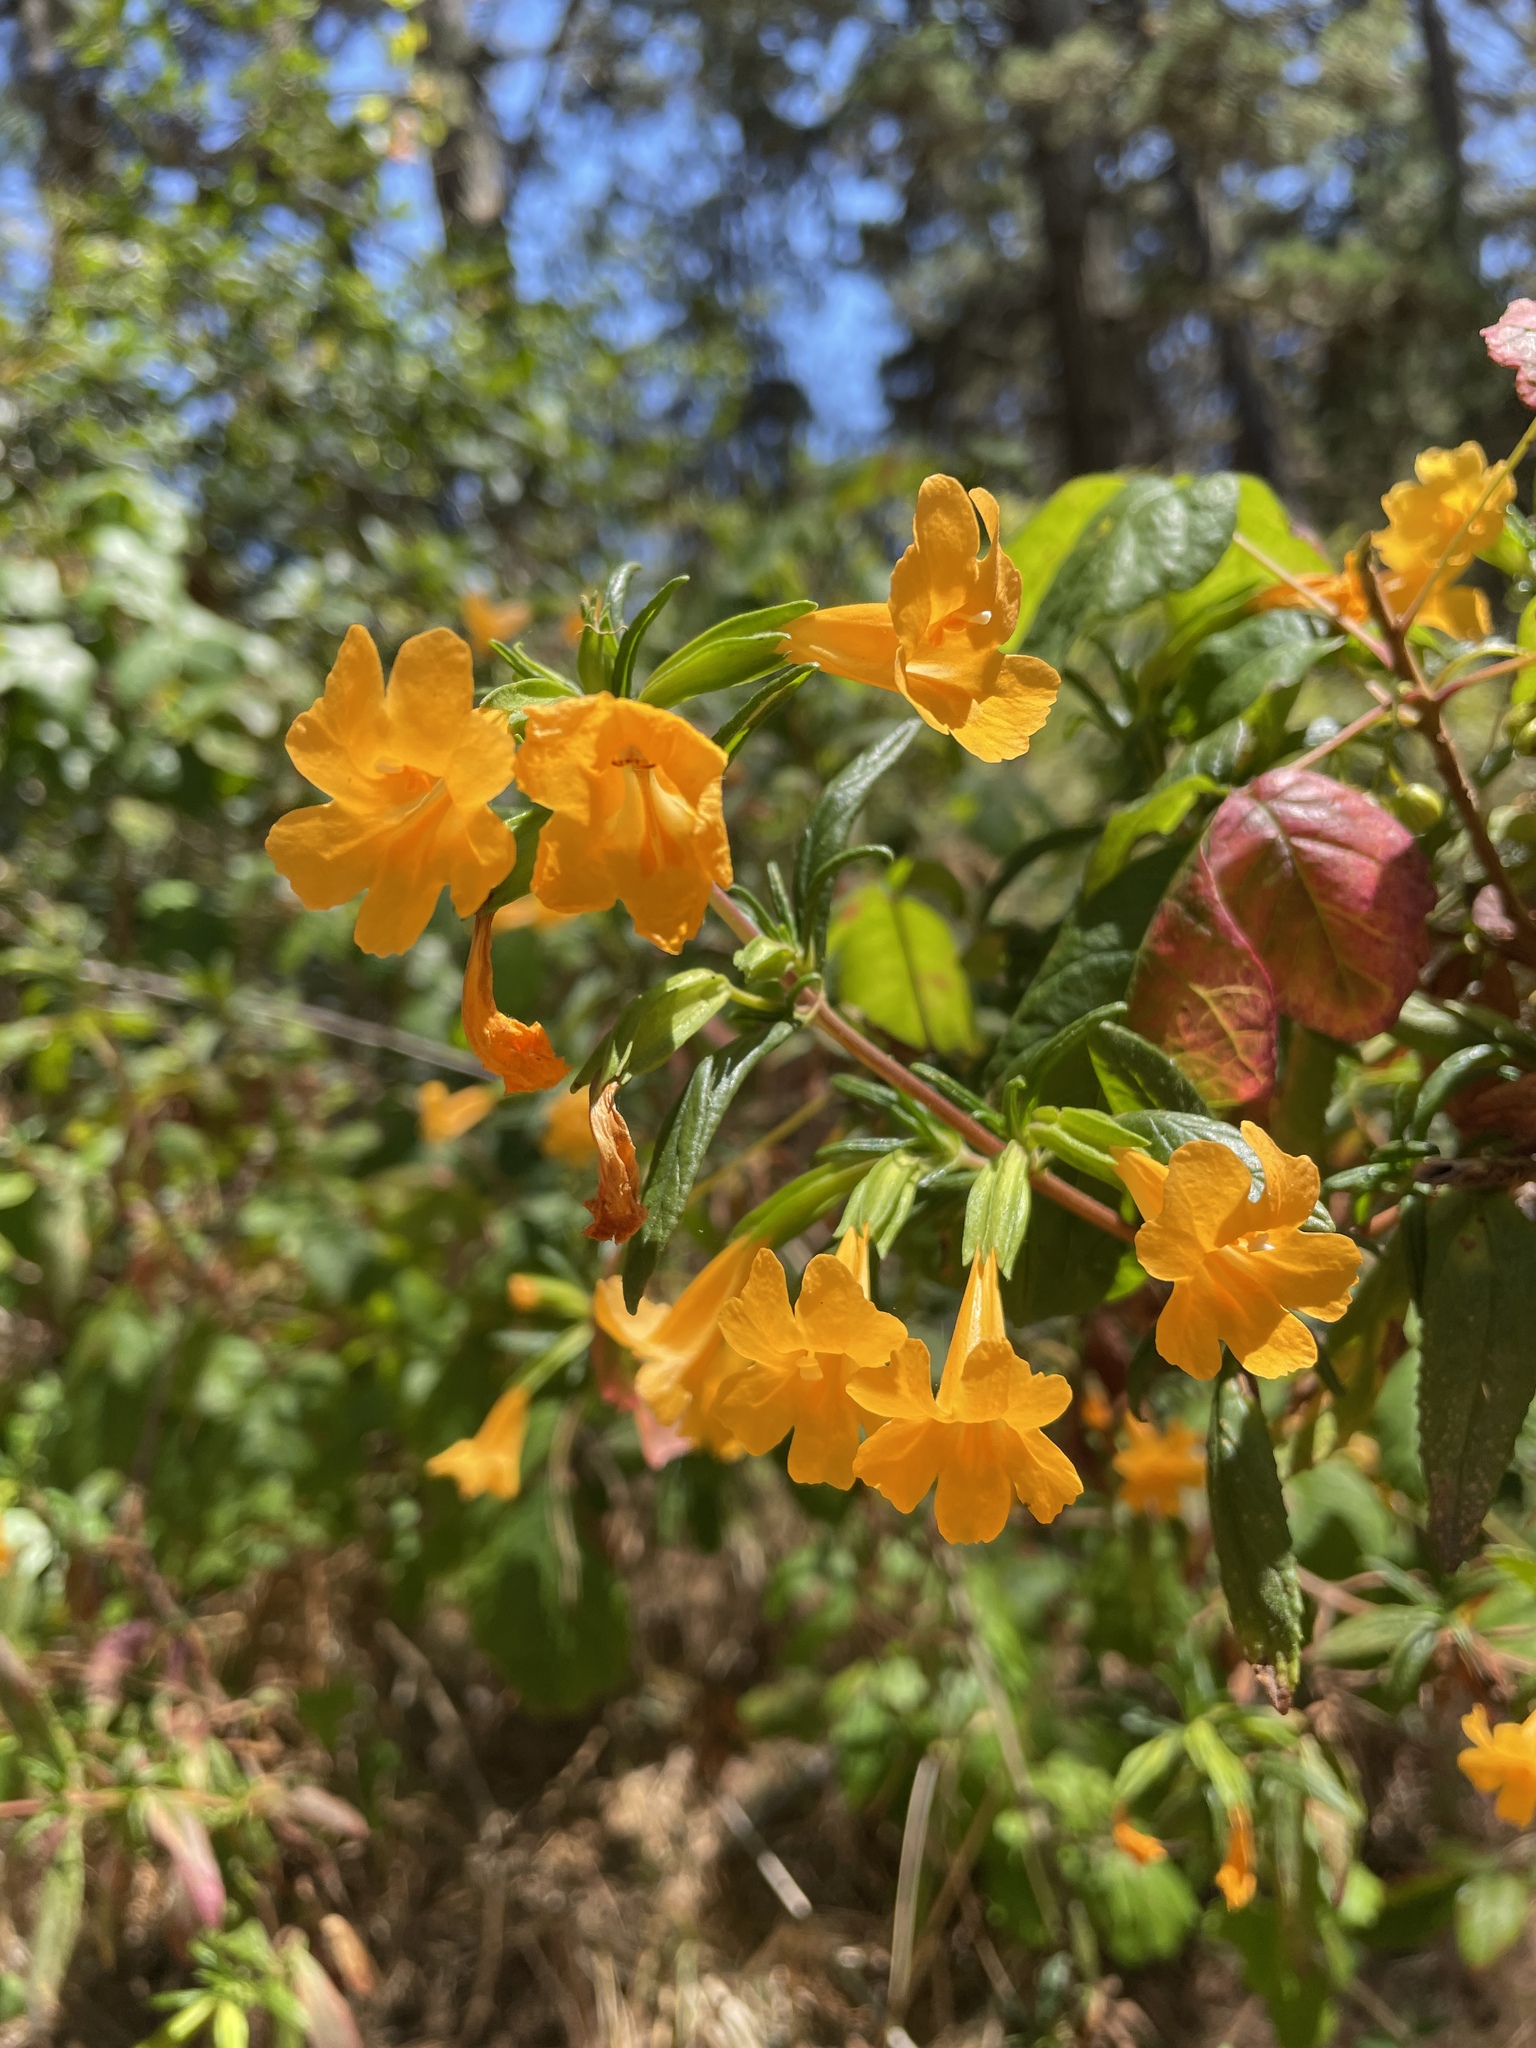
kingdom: Plantae
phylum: Tracheophyta
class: Magnoliopsida
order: Lamiales
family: Phrymaceae
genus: Diplacus
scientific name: Diplacus aurantiacus
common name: Bush monkey-flower
